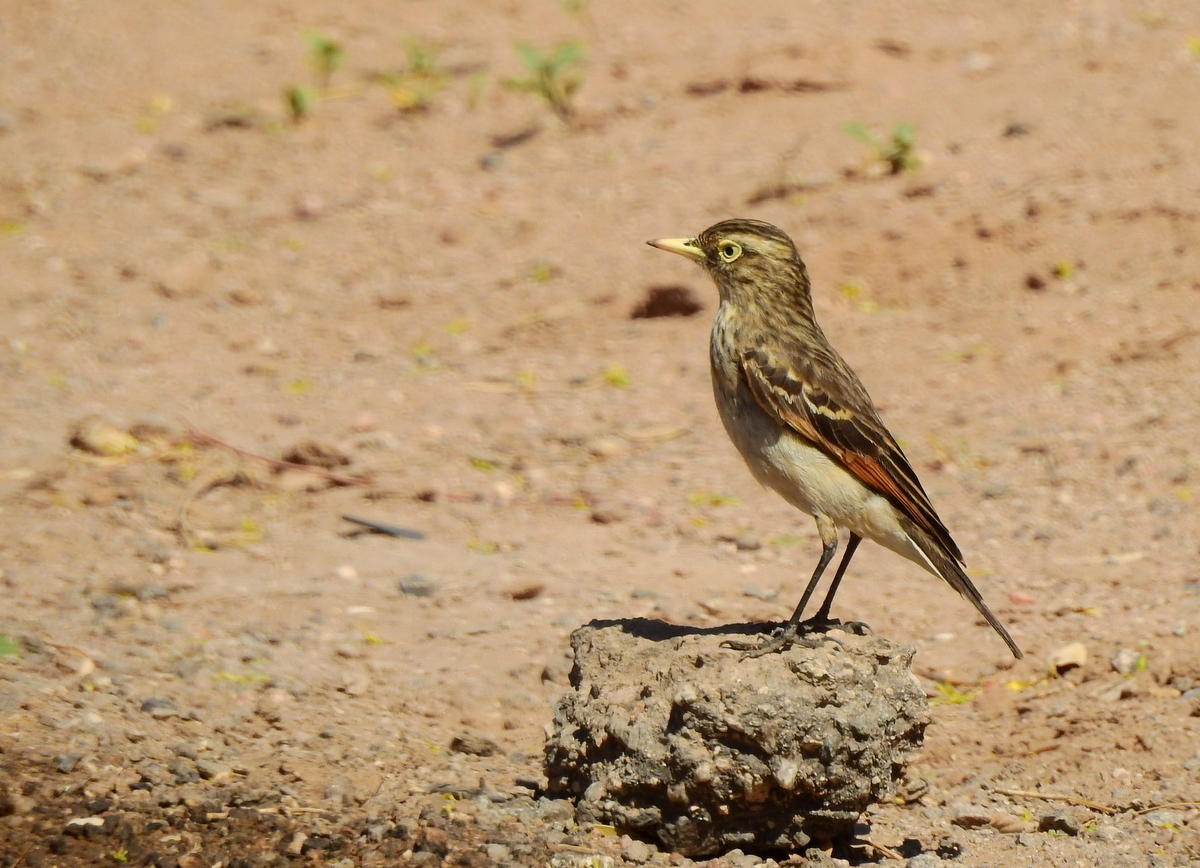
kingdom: Animalia
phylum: Chordata
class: Aves
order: Passeriformes
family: Tyrannidae
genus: Hymenops
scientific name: Hymenops perspicillatus
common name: Spectacled tyrant
